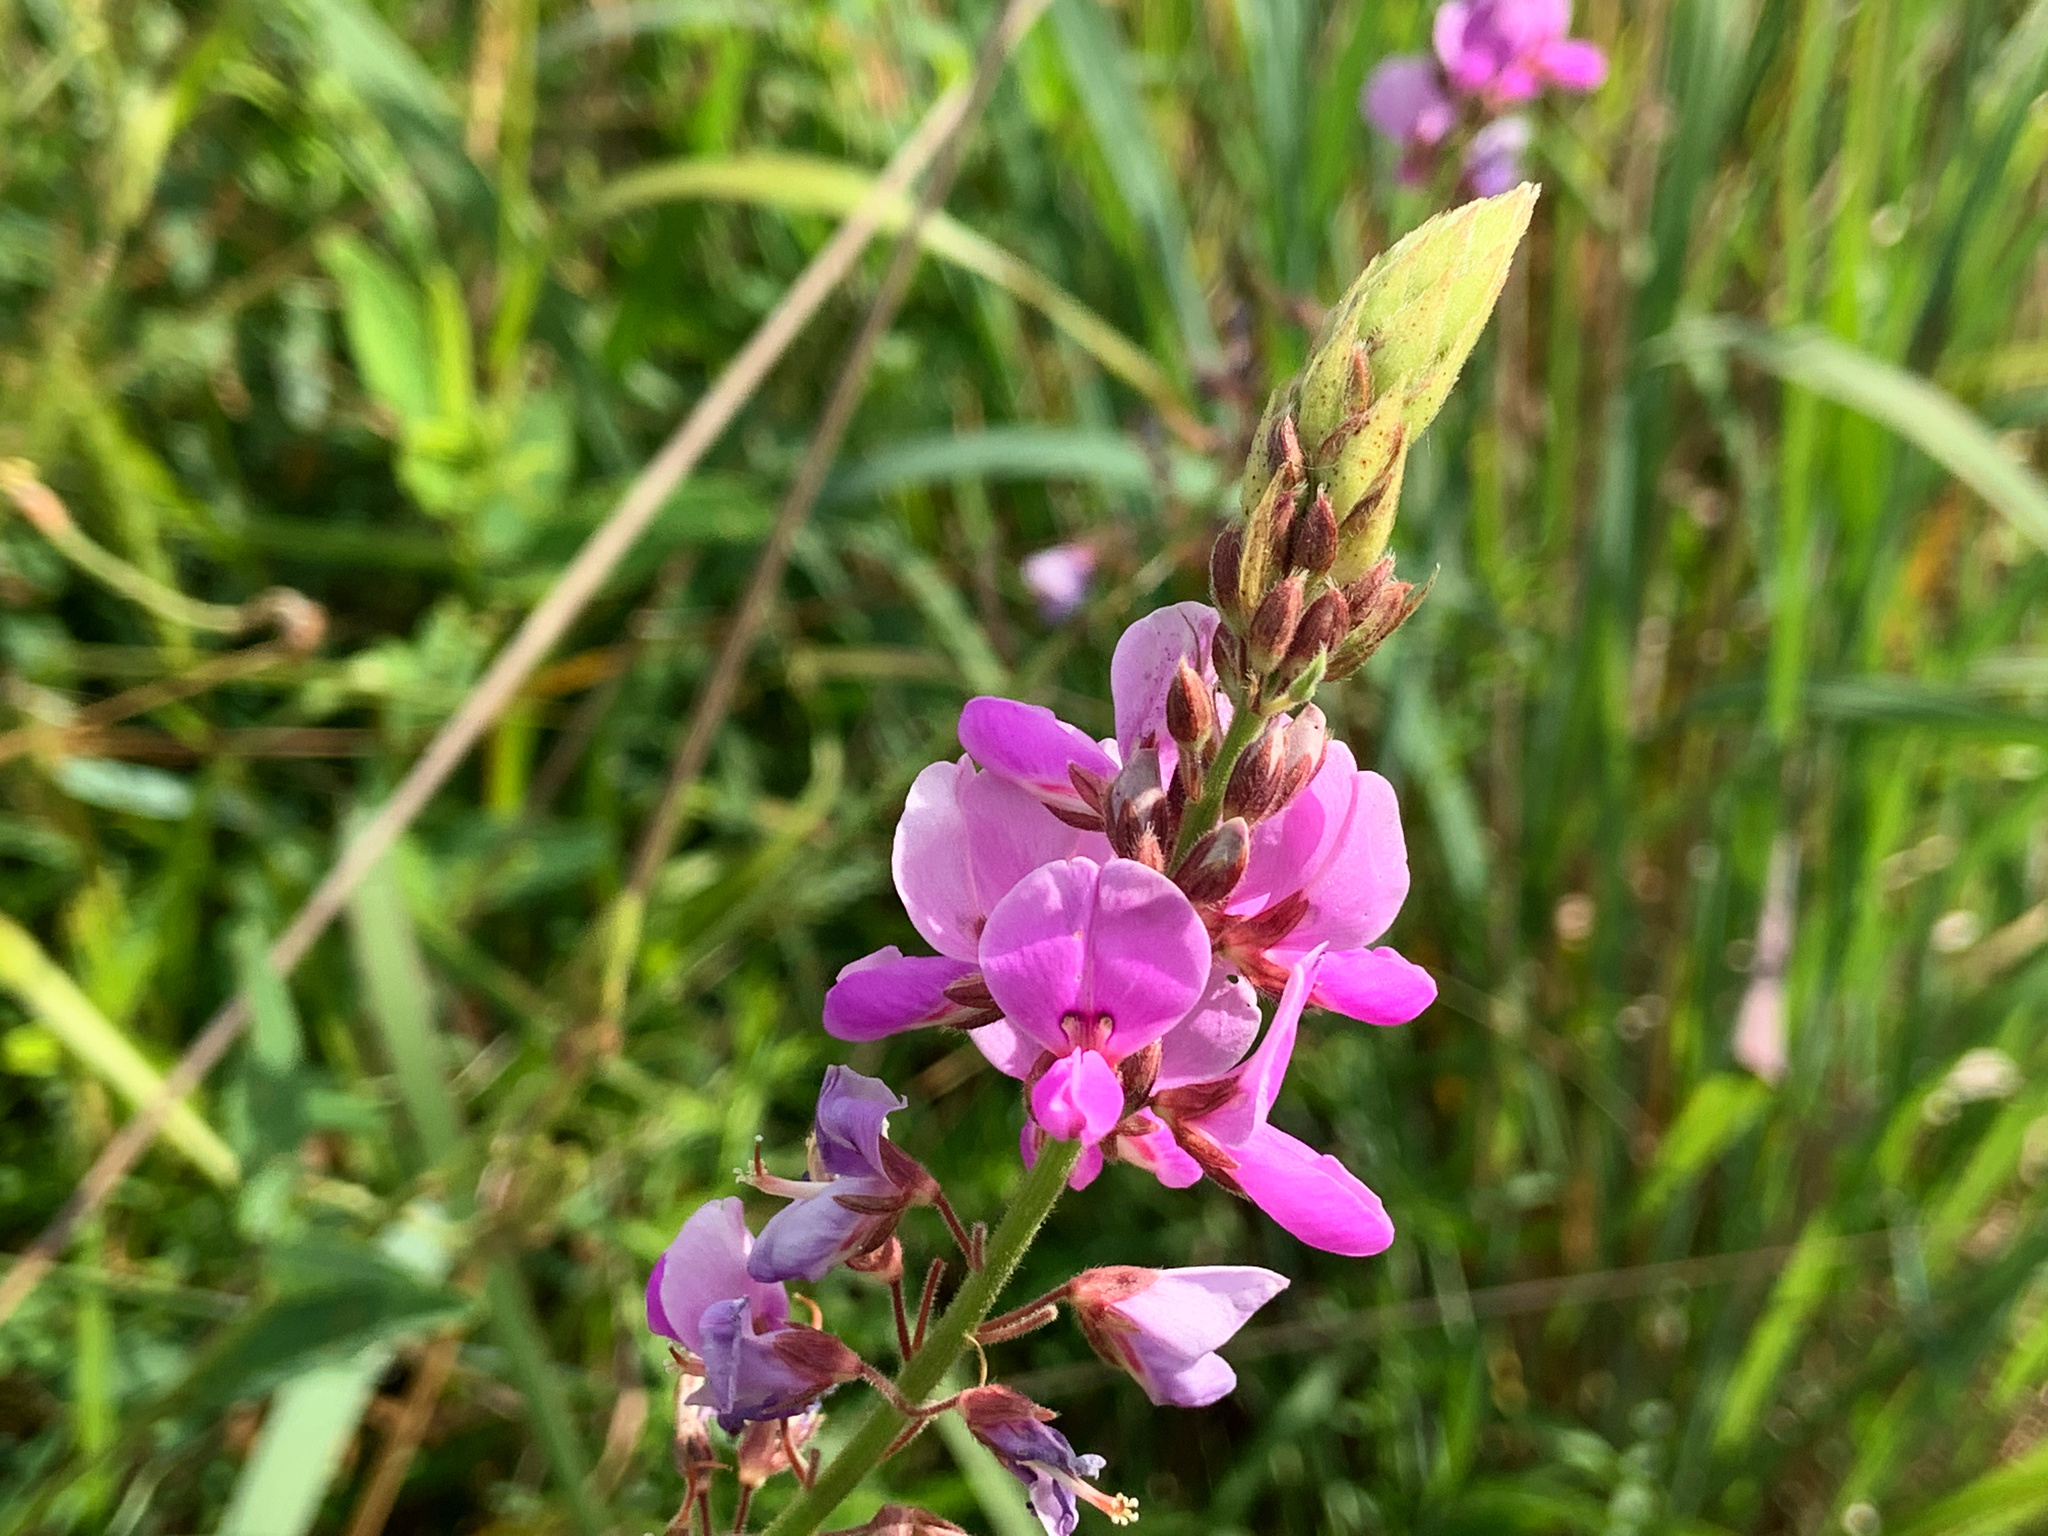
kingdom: Plantae
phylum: Tracheophyta
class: Magnoliopsida
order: Fabales
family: Fabaceae
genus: Desmodium
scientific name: Desmodium canadense
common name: Canada tick-trefoil
